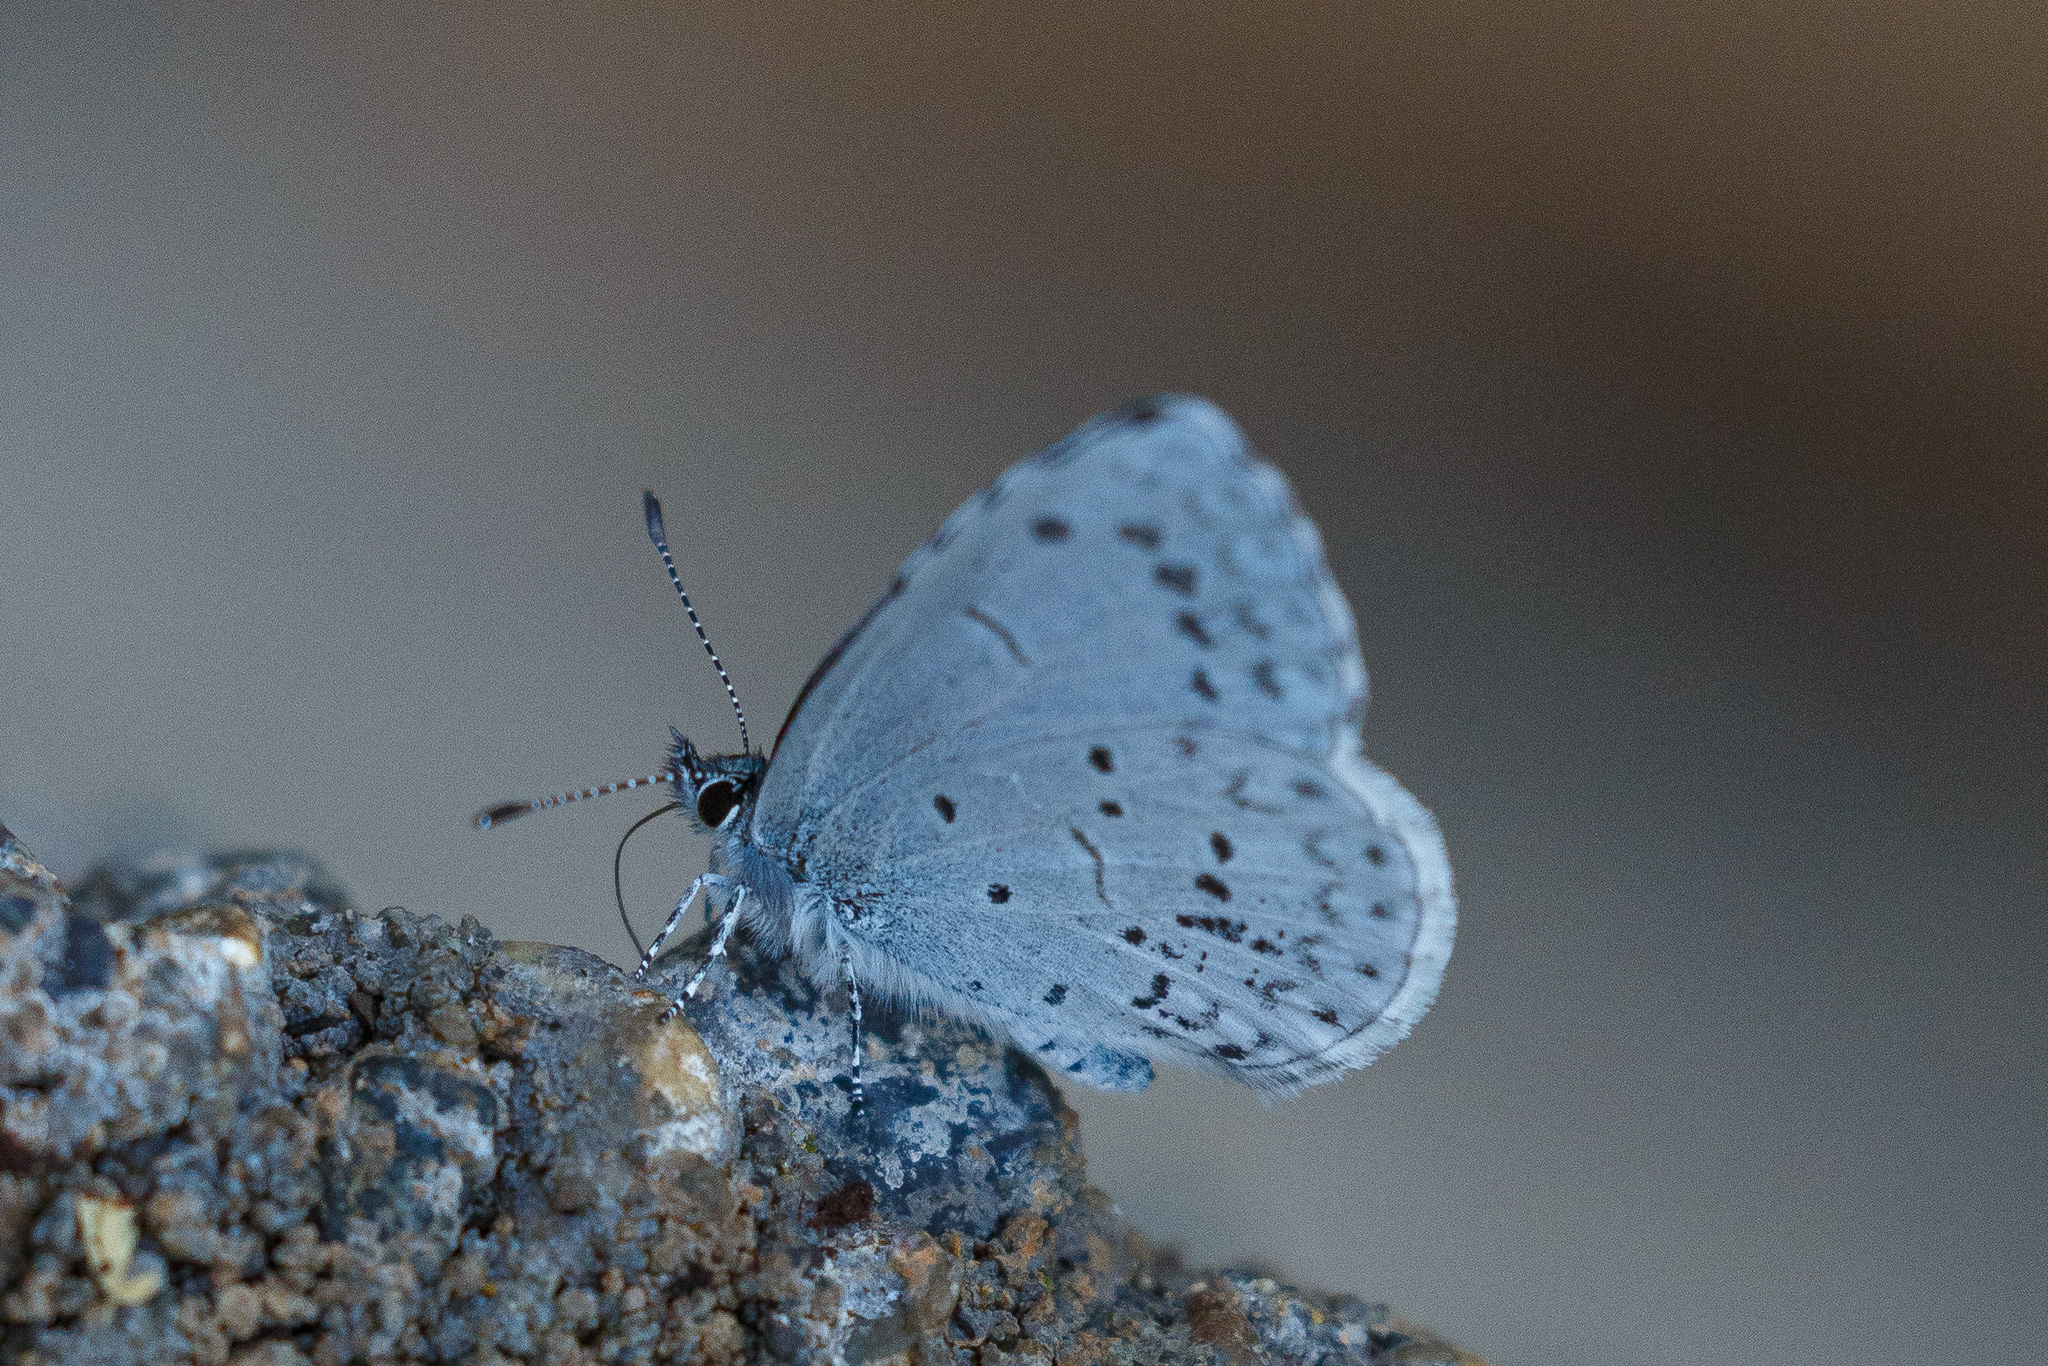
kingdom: Animalia
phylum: Arthropoda
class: Insecta
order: Lepidoptera
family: Lycaenidae
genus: Celastrina
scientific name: Celastrina ladon
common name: Spring azure
